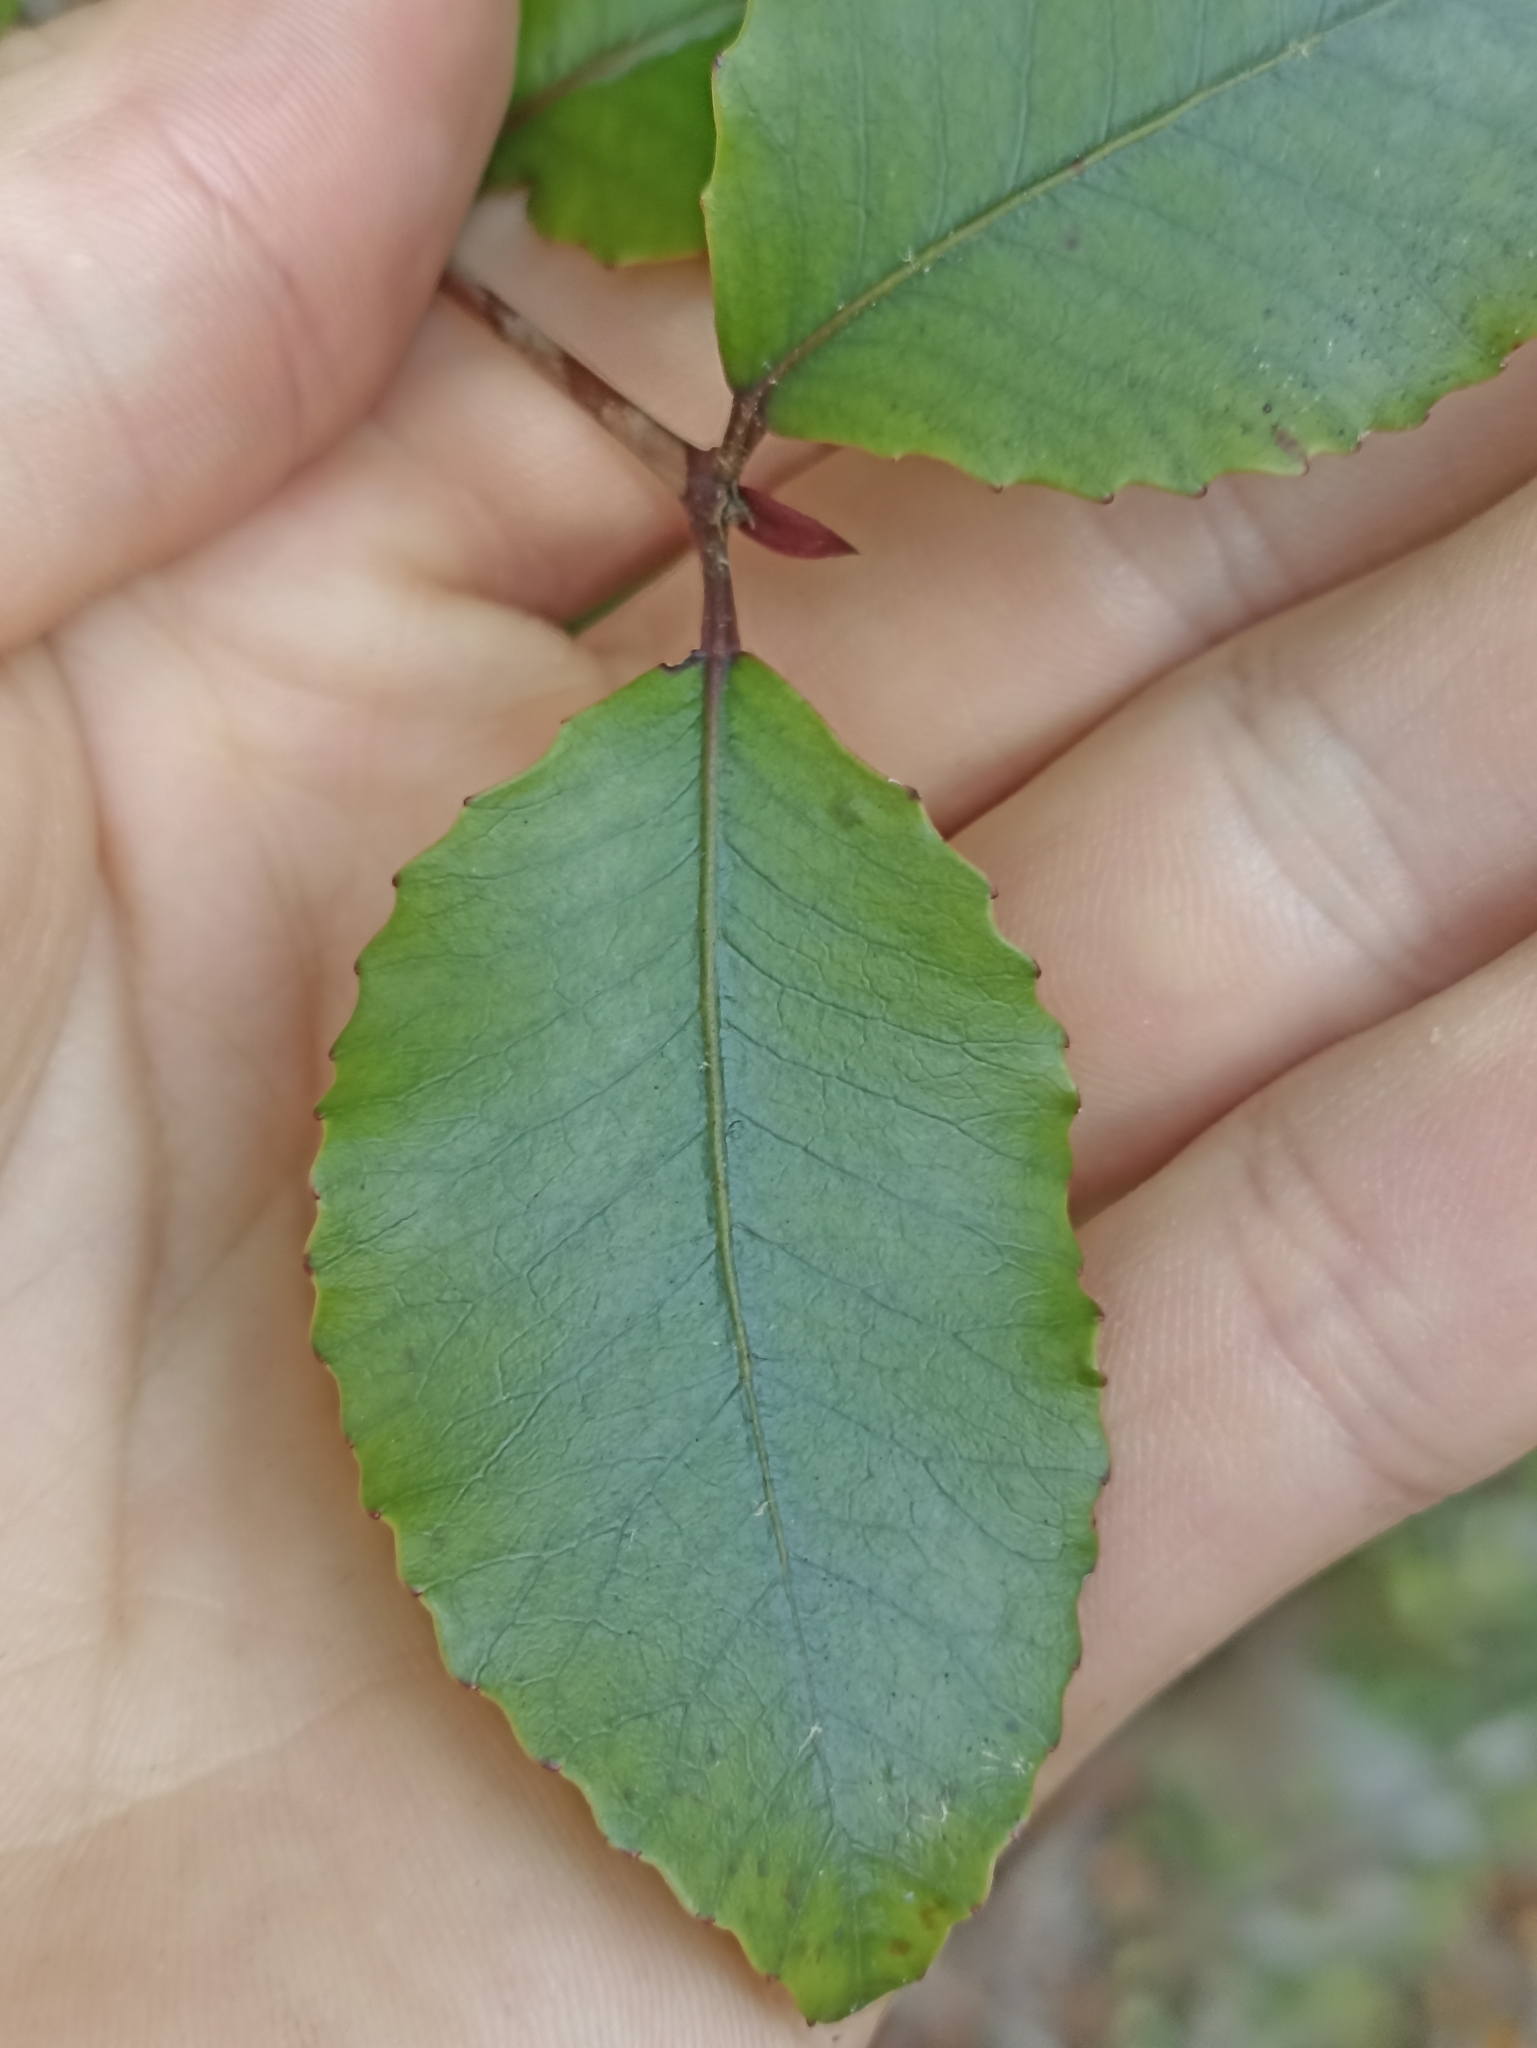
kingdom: Plantae
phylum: Tracheophyta
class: Magnoliopsida
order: Oxalidales
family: Cunoniaceae
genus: Pterophylla
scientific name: Pterophylla racemosa
